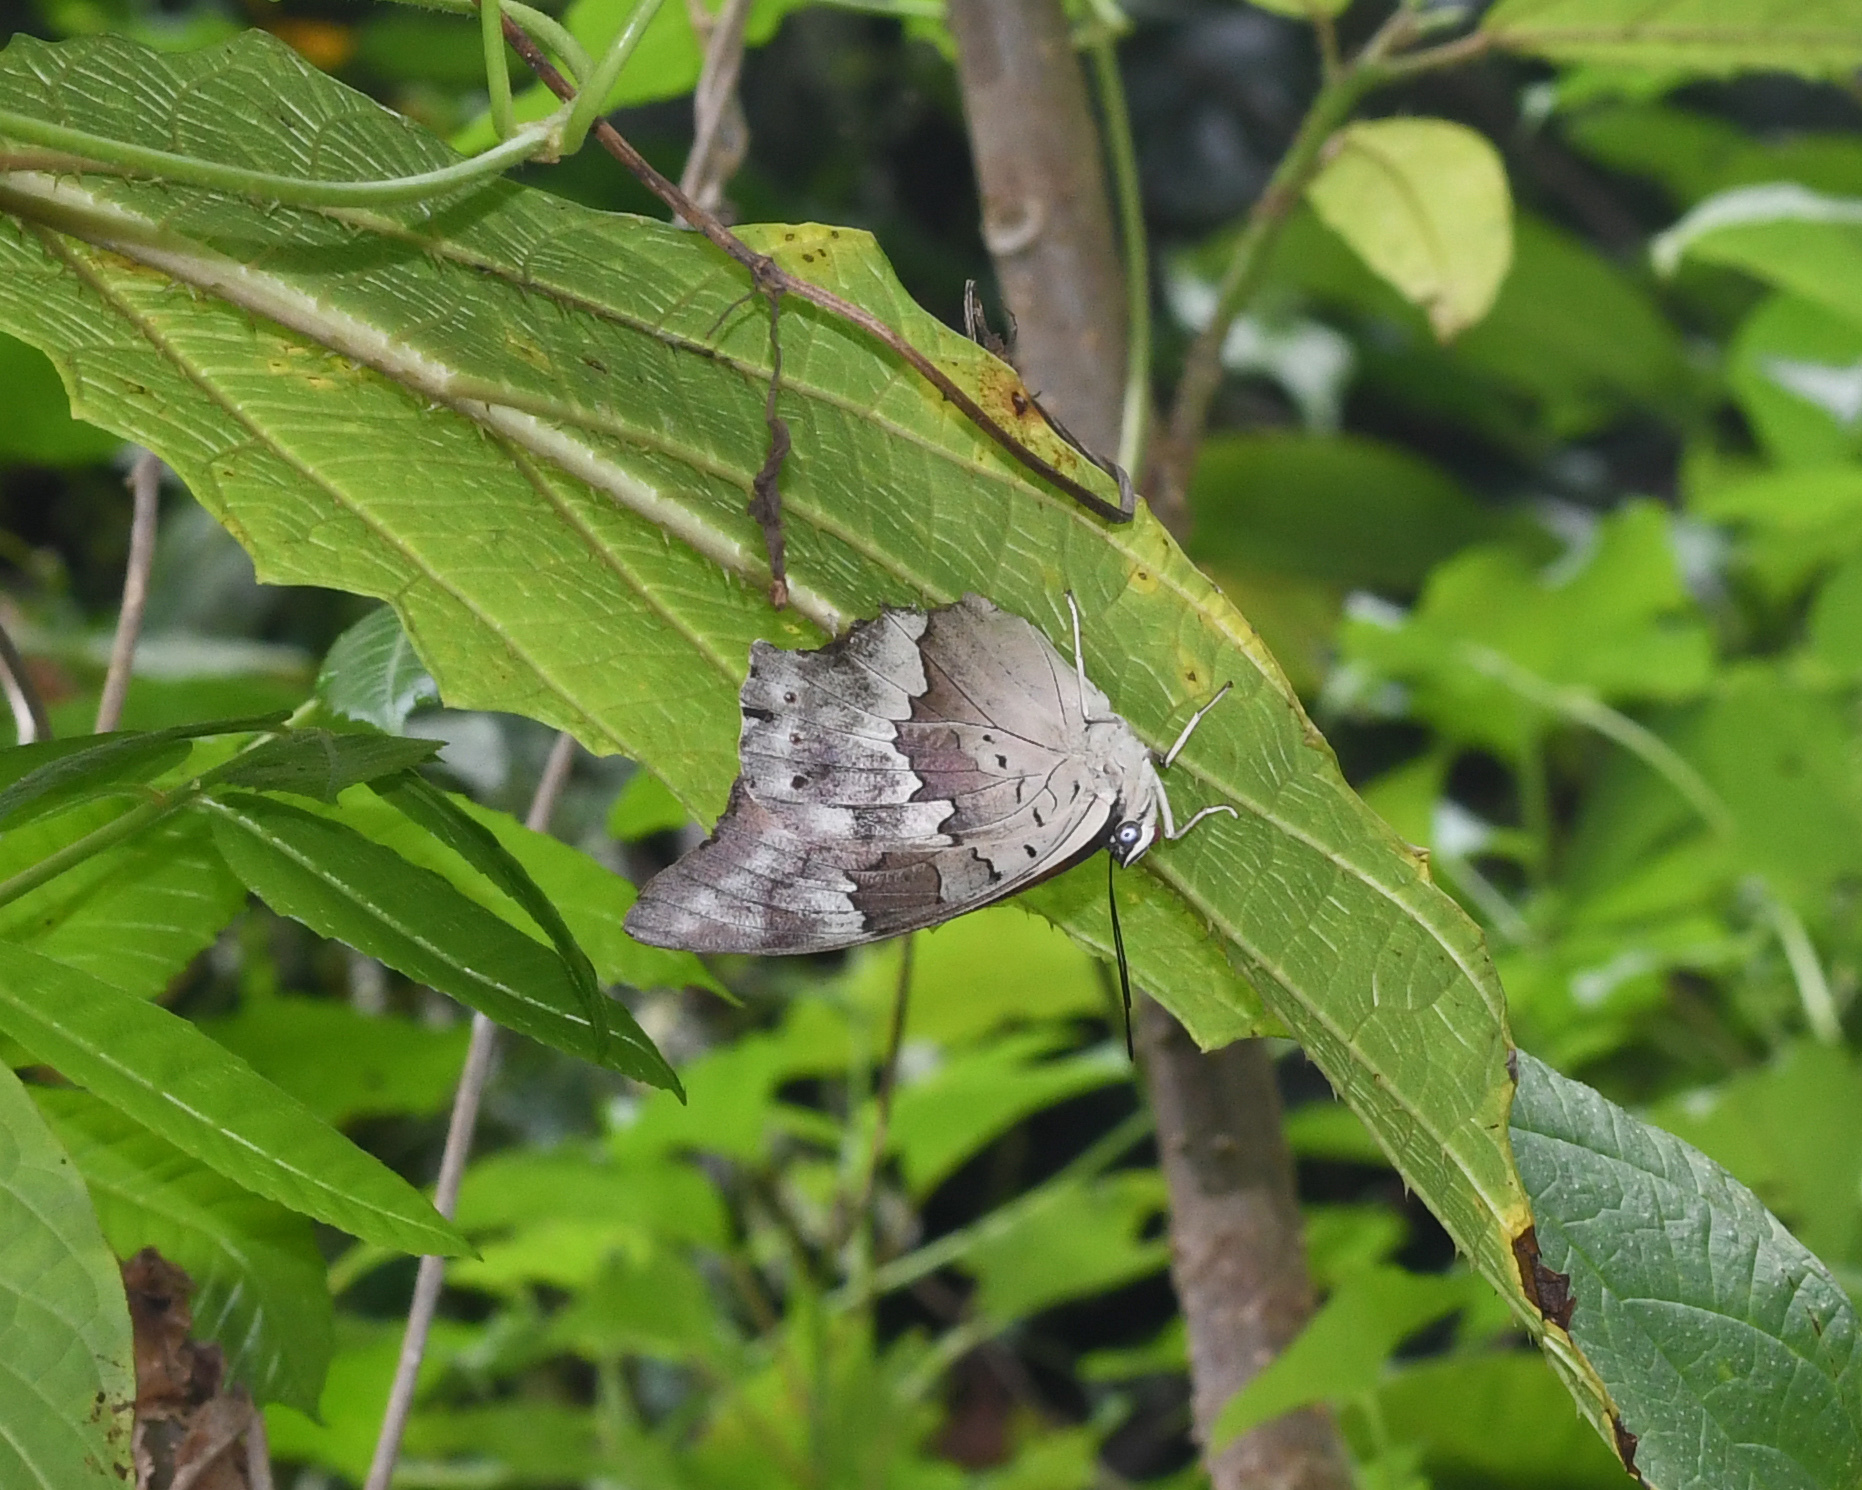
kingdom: Animalia
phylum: Arthropoda
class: Insecta
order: Lepidoptera
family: Nymphalidae
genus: Prepona
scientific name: Prepona demophoon
